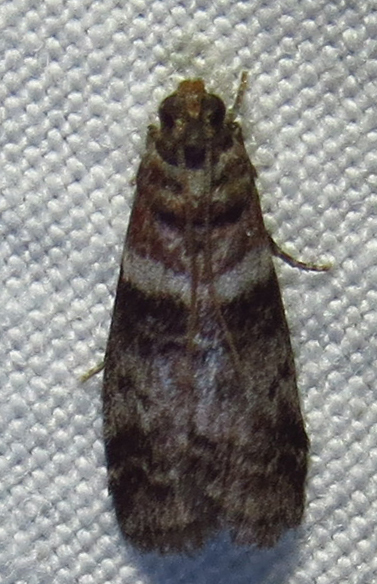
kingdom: Animalia
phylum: Arthropoda
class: Insecta
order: Lepidoptera
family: Pyralidae
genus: Sciota
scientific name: Sciota uvinella
